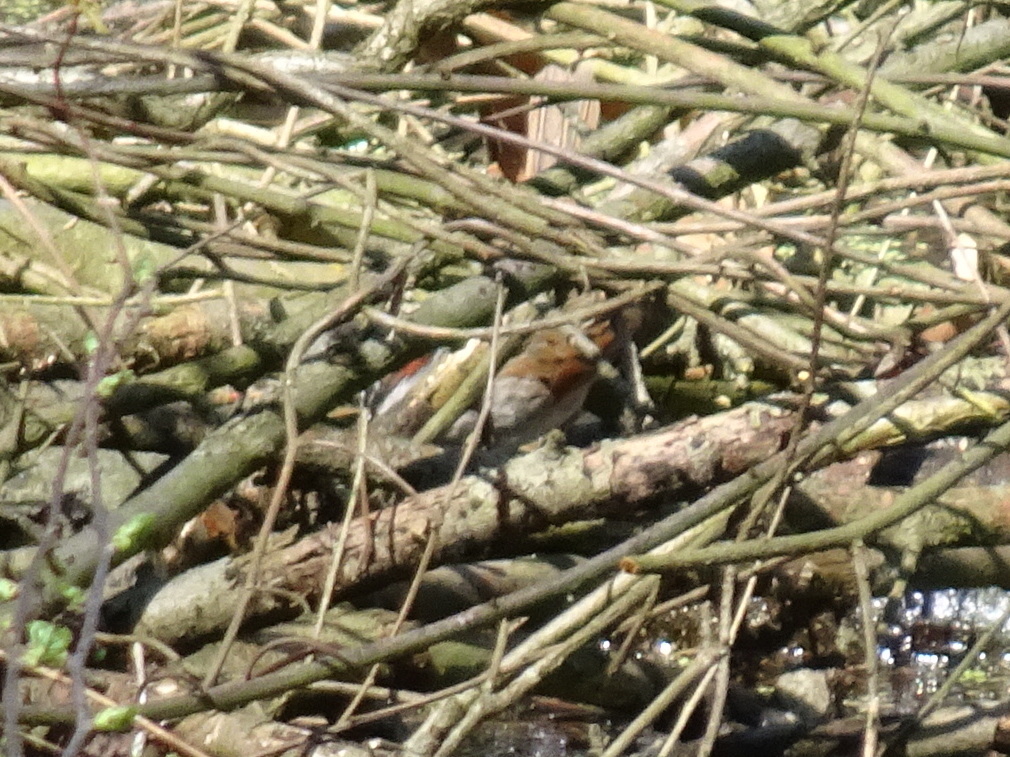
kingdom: Animalia
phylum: Chordata
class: Aves
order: Passeriformes
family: Passerellidae
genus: Melospiza
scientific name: Melospiza georgiana
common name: Swamp sparrow
